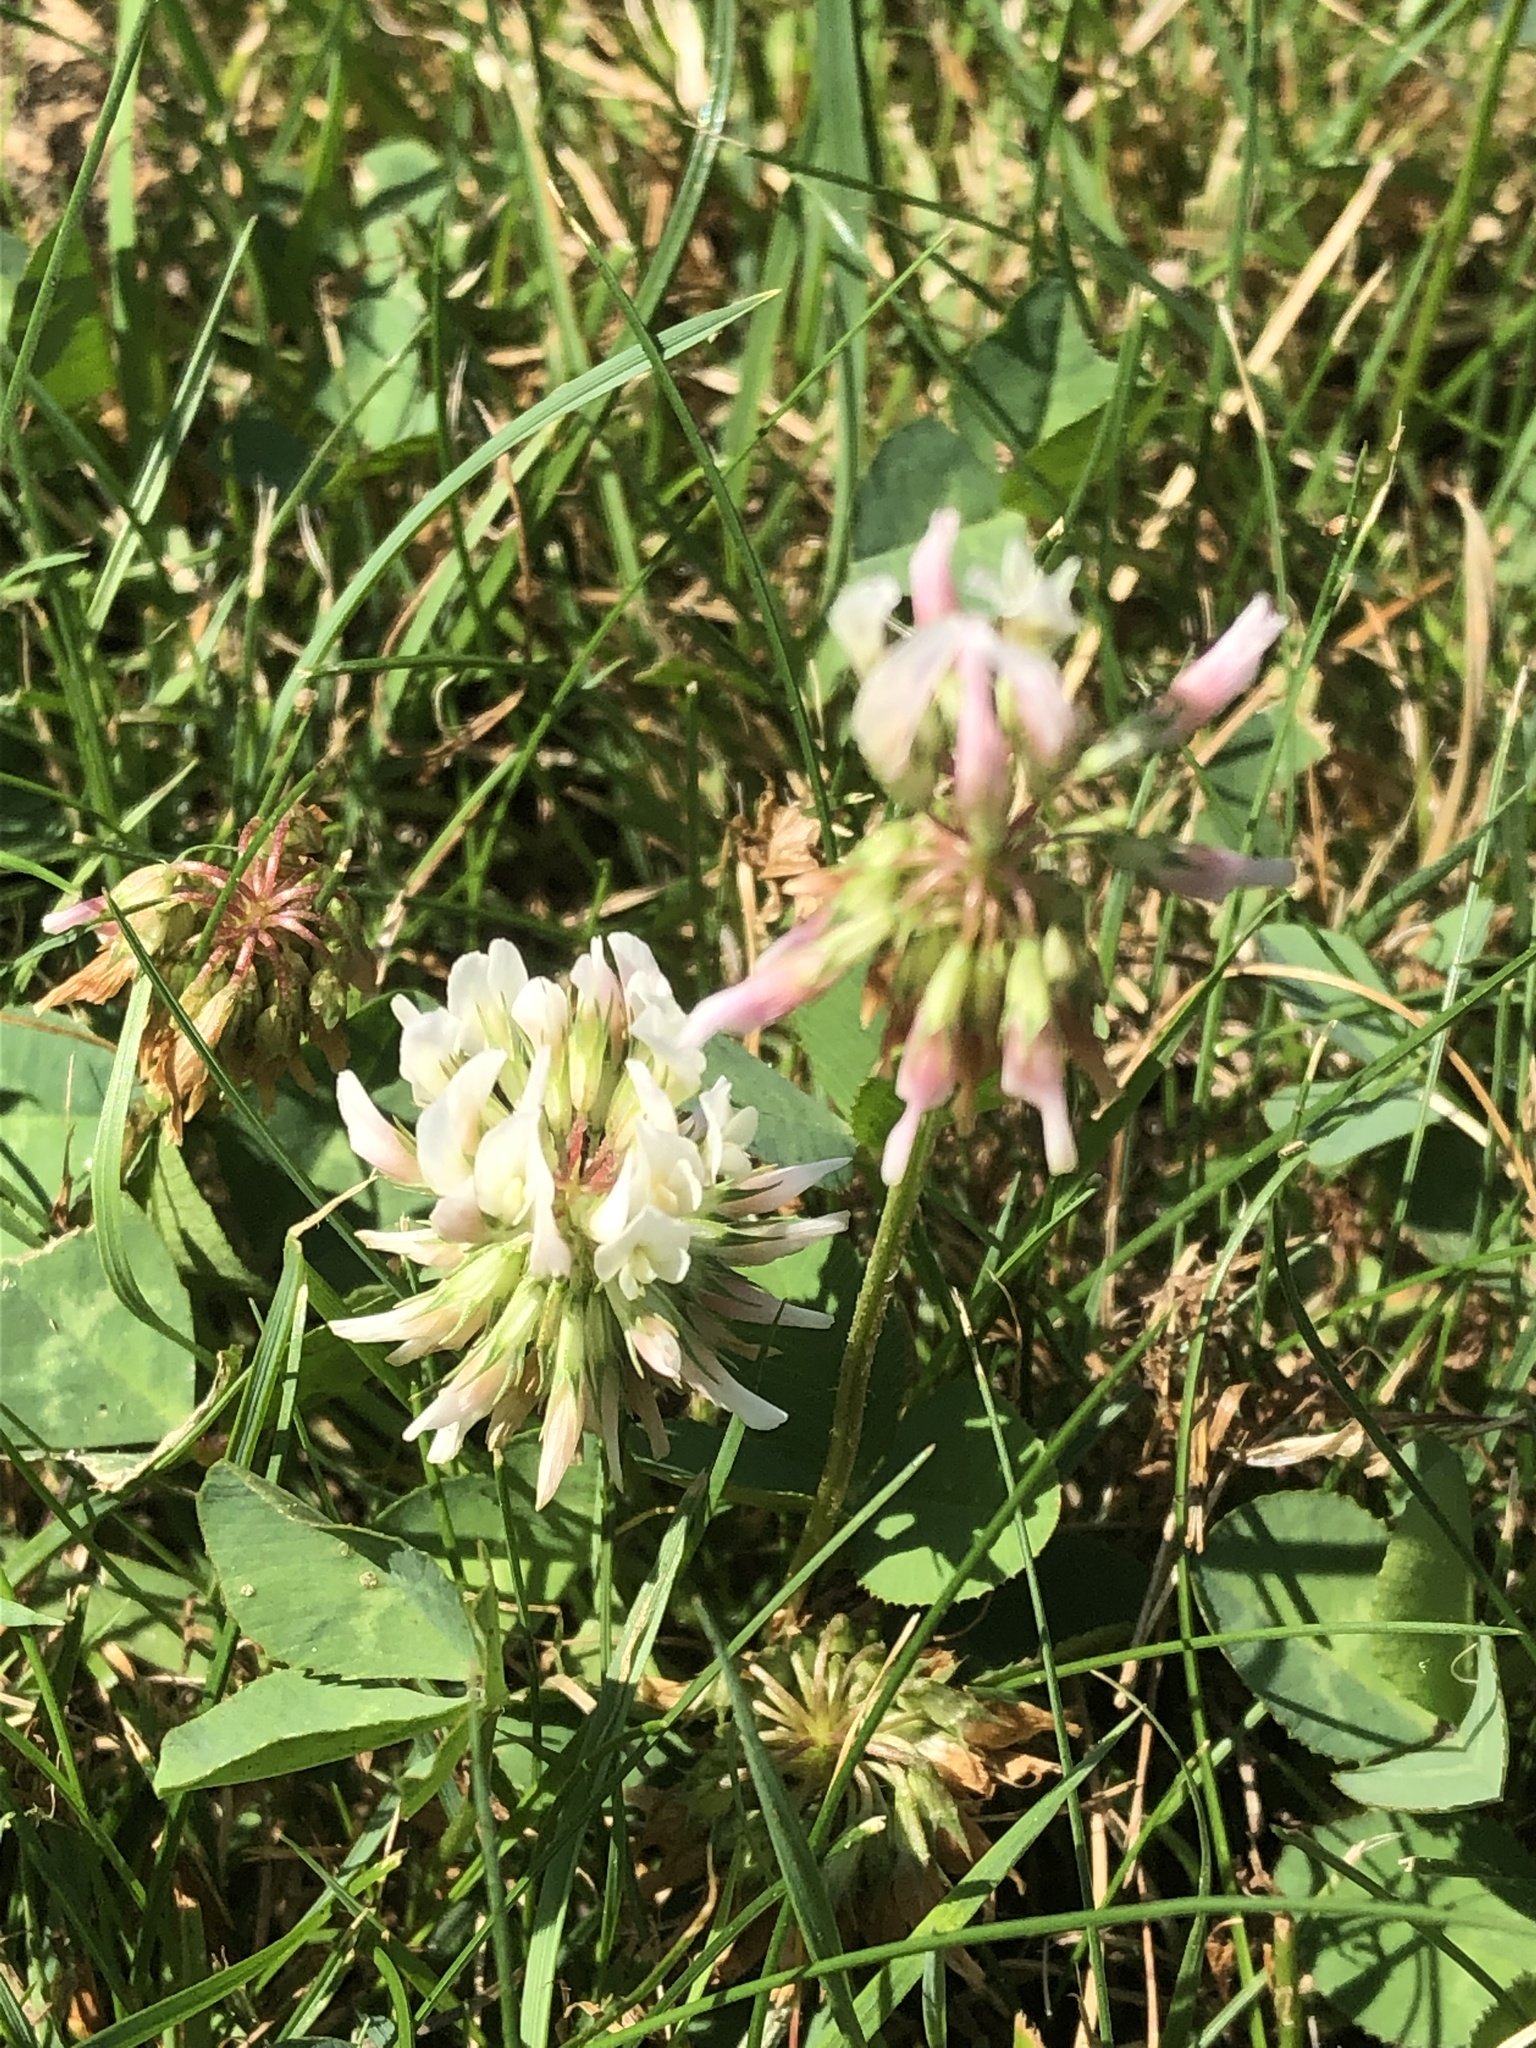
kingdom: Plantae
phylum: Tracheophyta
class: Magnoliopsida
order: Fabales
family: Fabaceae
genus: Trifolium
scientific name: Trifolium repens
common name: White clover
